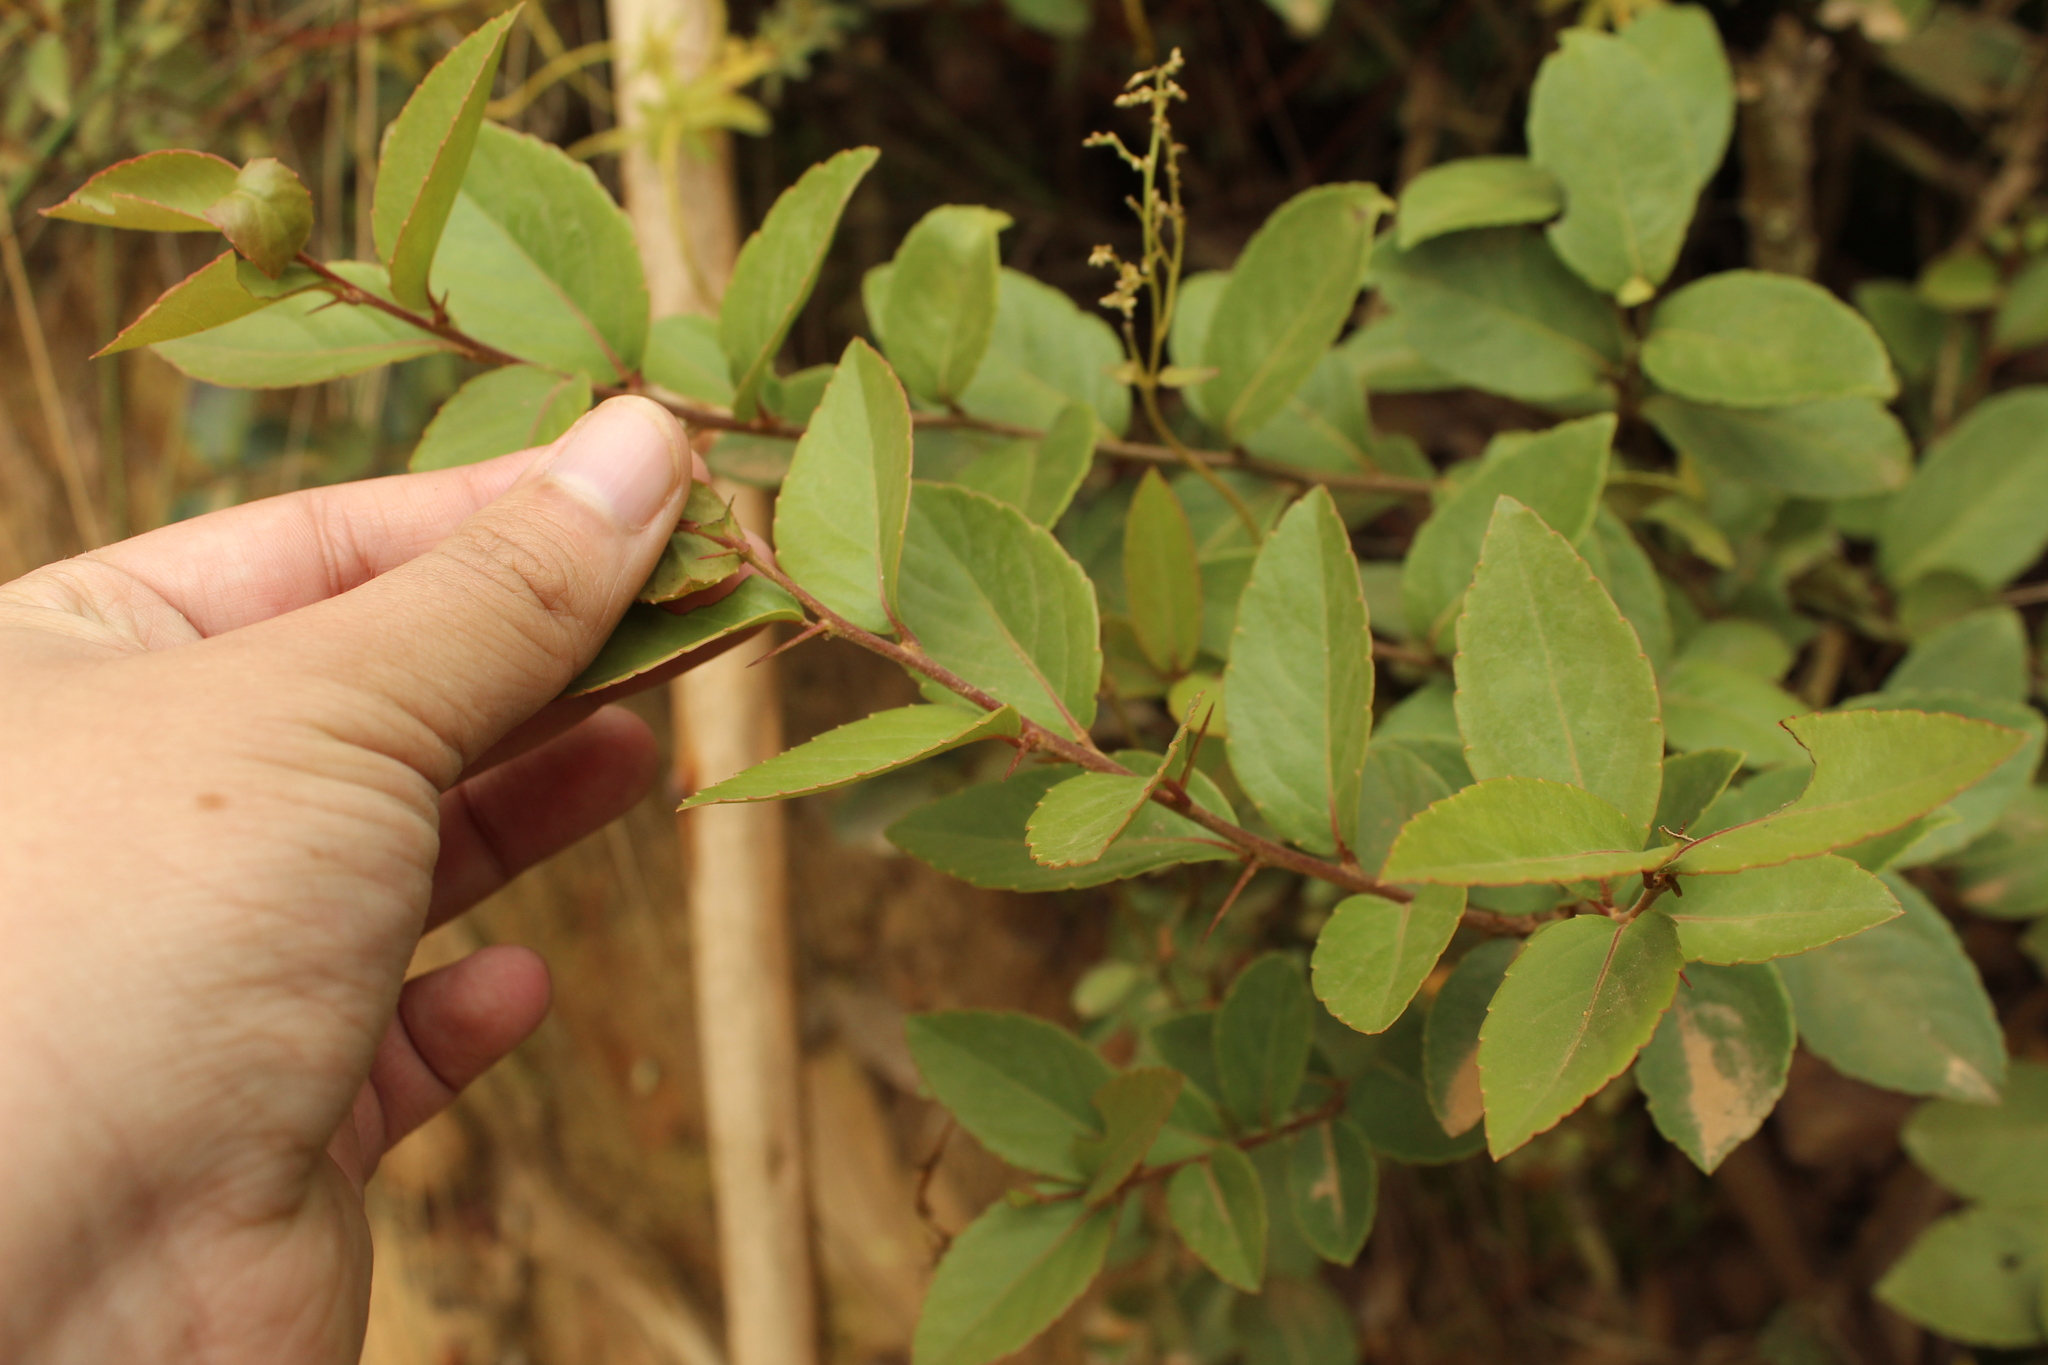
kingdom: Plantae
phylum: Tracheophyta
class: Magnoliopsida
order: Malpighiales
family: Salicaceae
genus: Xylosma
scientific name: Xylosma spiculifera
